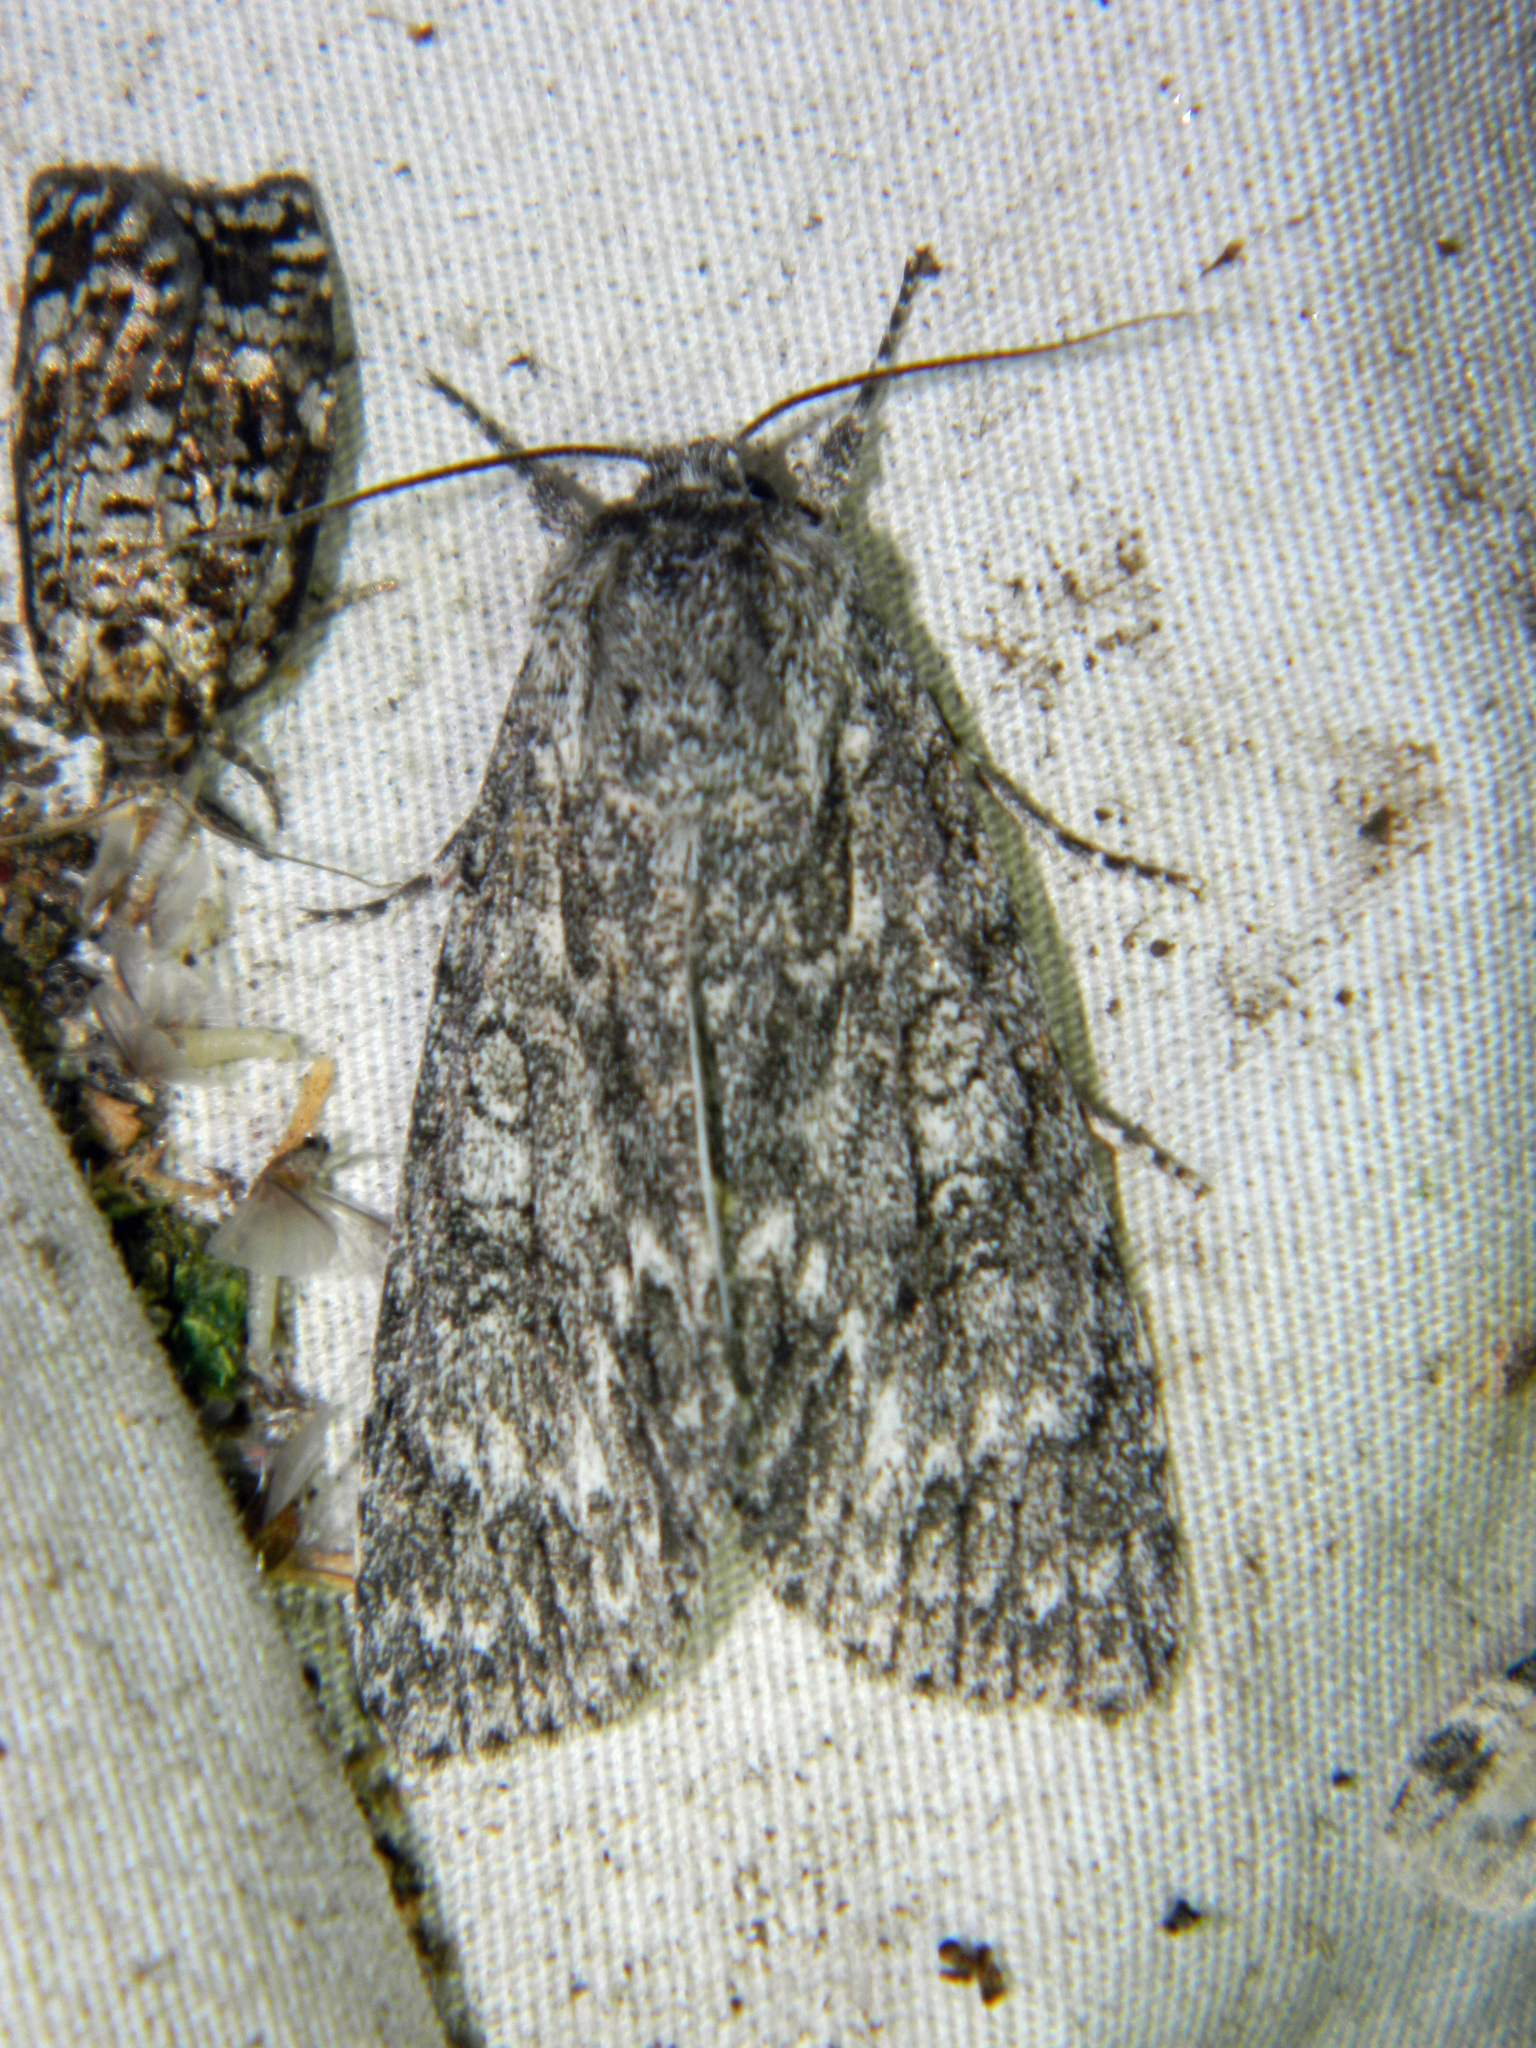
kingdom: Animalia
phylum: Arthropoda
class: Insecta
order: Lepidoptera
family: Noctuidae
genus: Acronicta
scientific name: Acronicta impleta
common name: Powdered dagger
